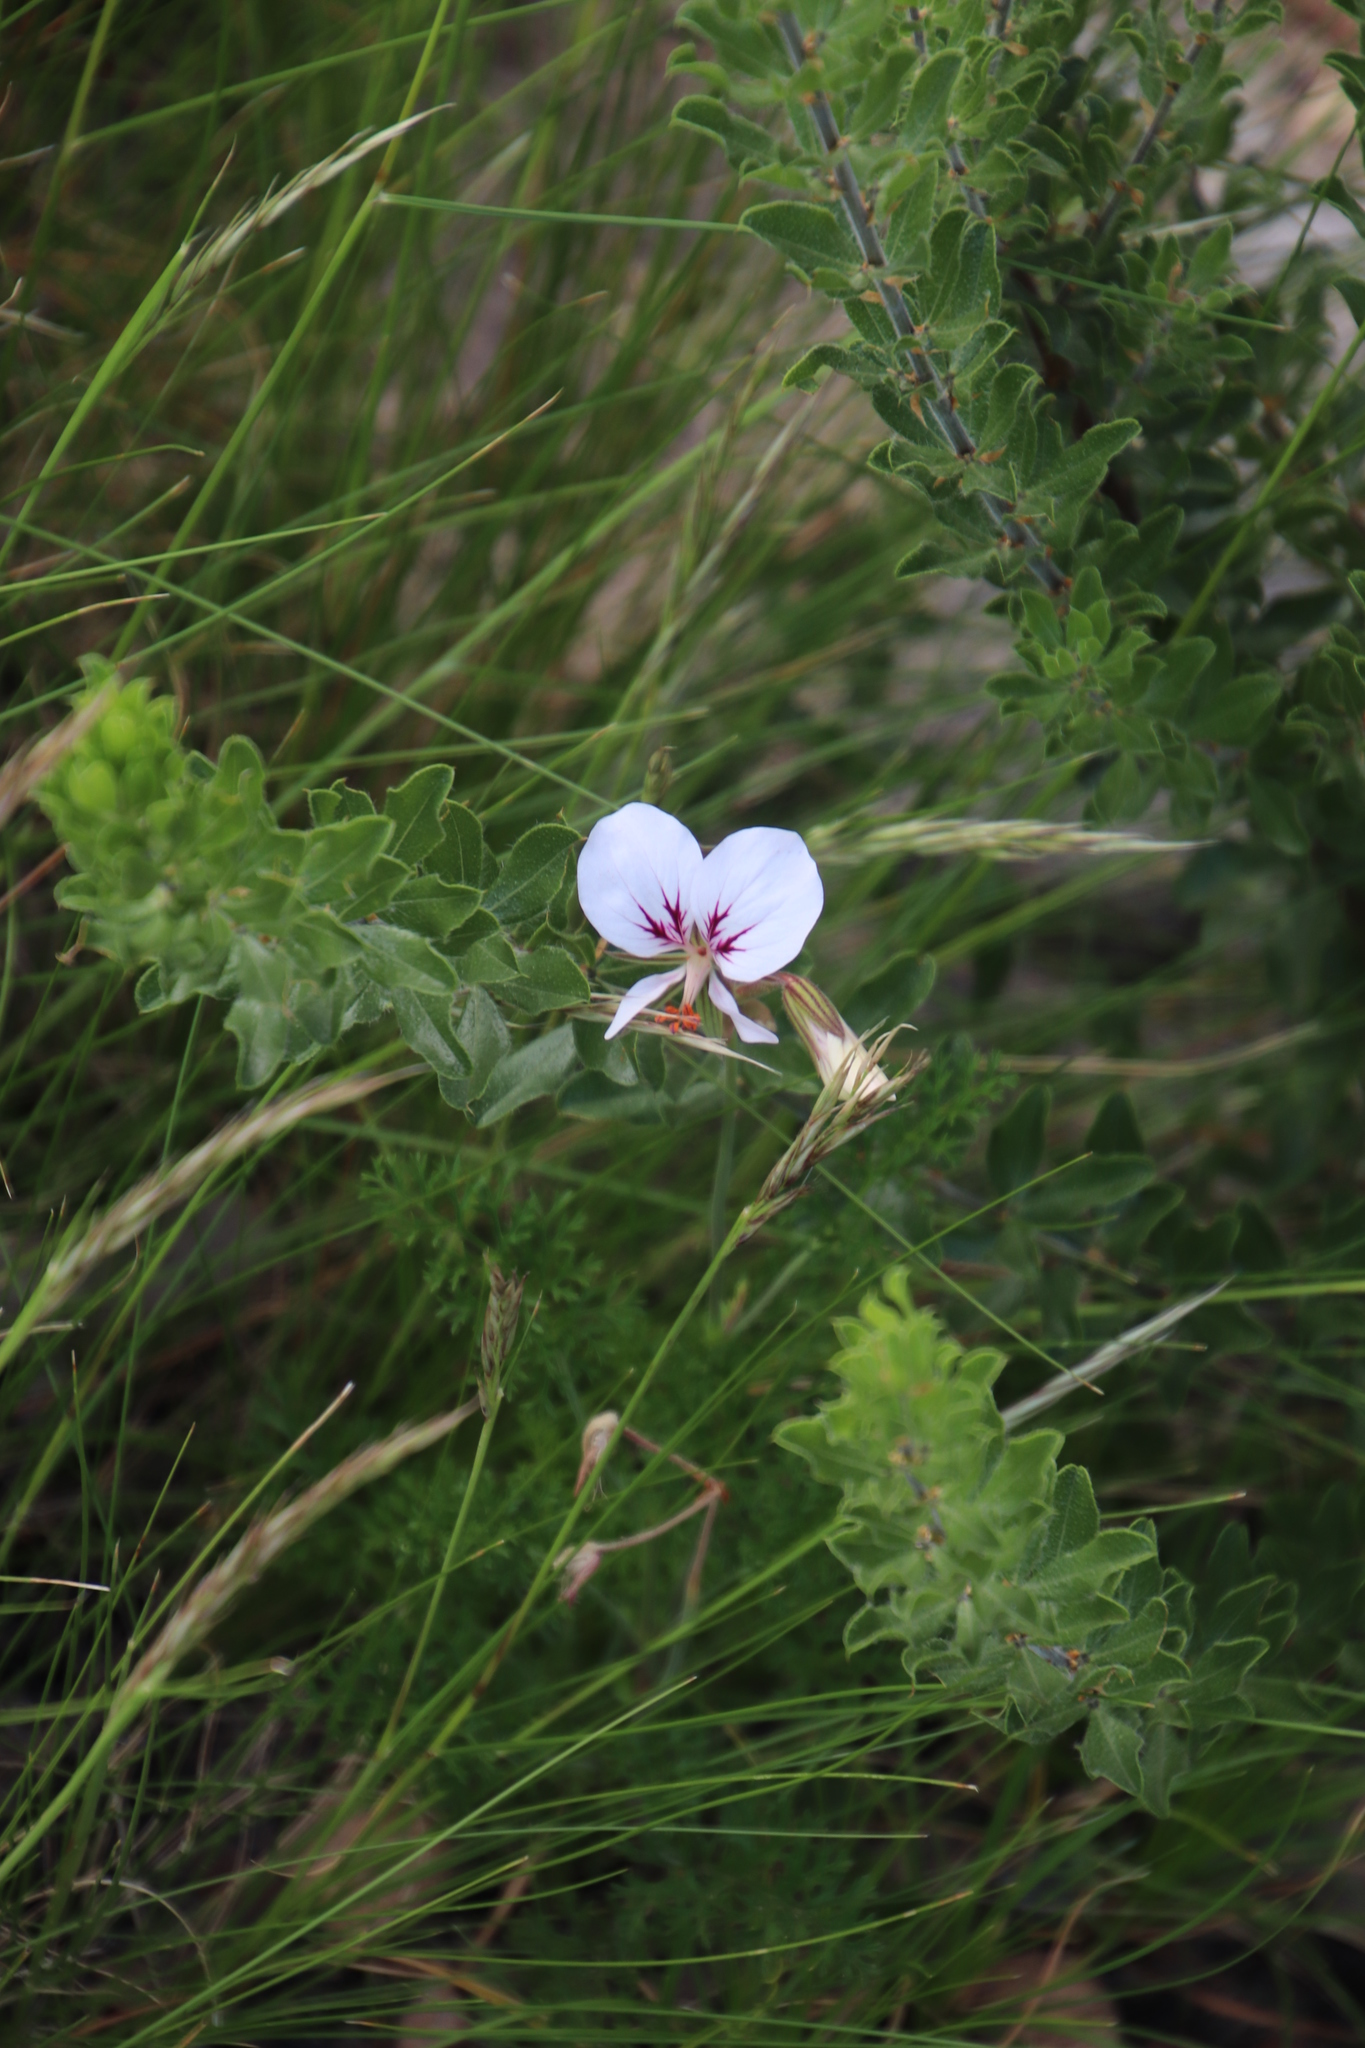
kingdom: Plantae
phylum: Tracheophyta
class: Magnoliopsida
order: Geraniales
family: Geraniaceae
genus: Pelargonium
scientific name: Pelargonium myrrhifolium
